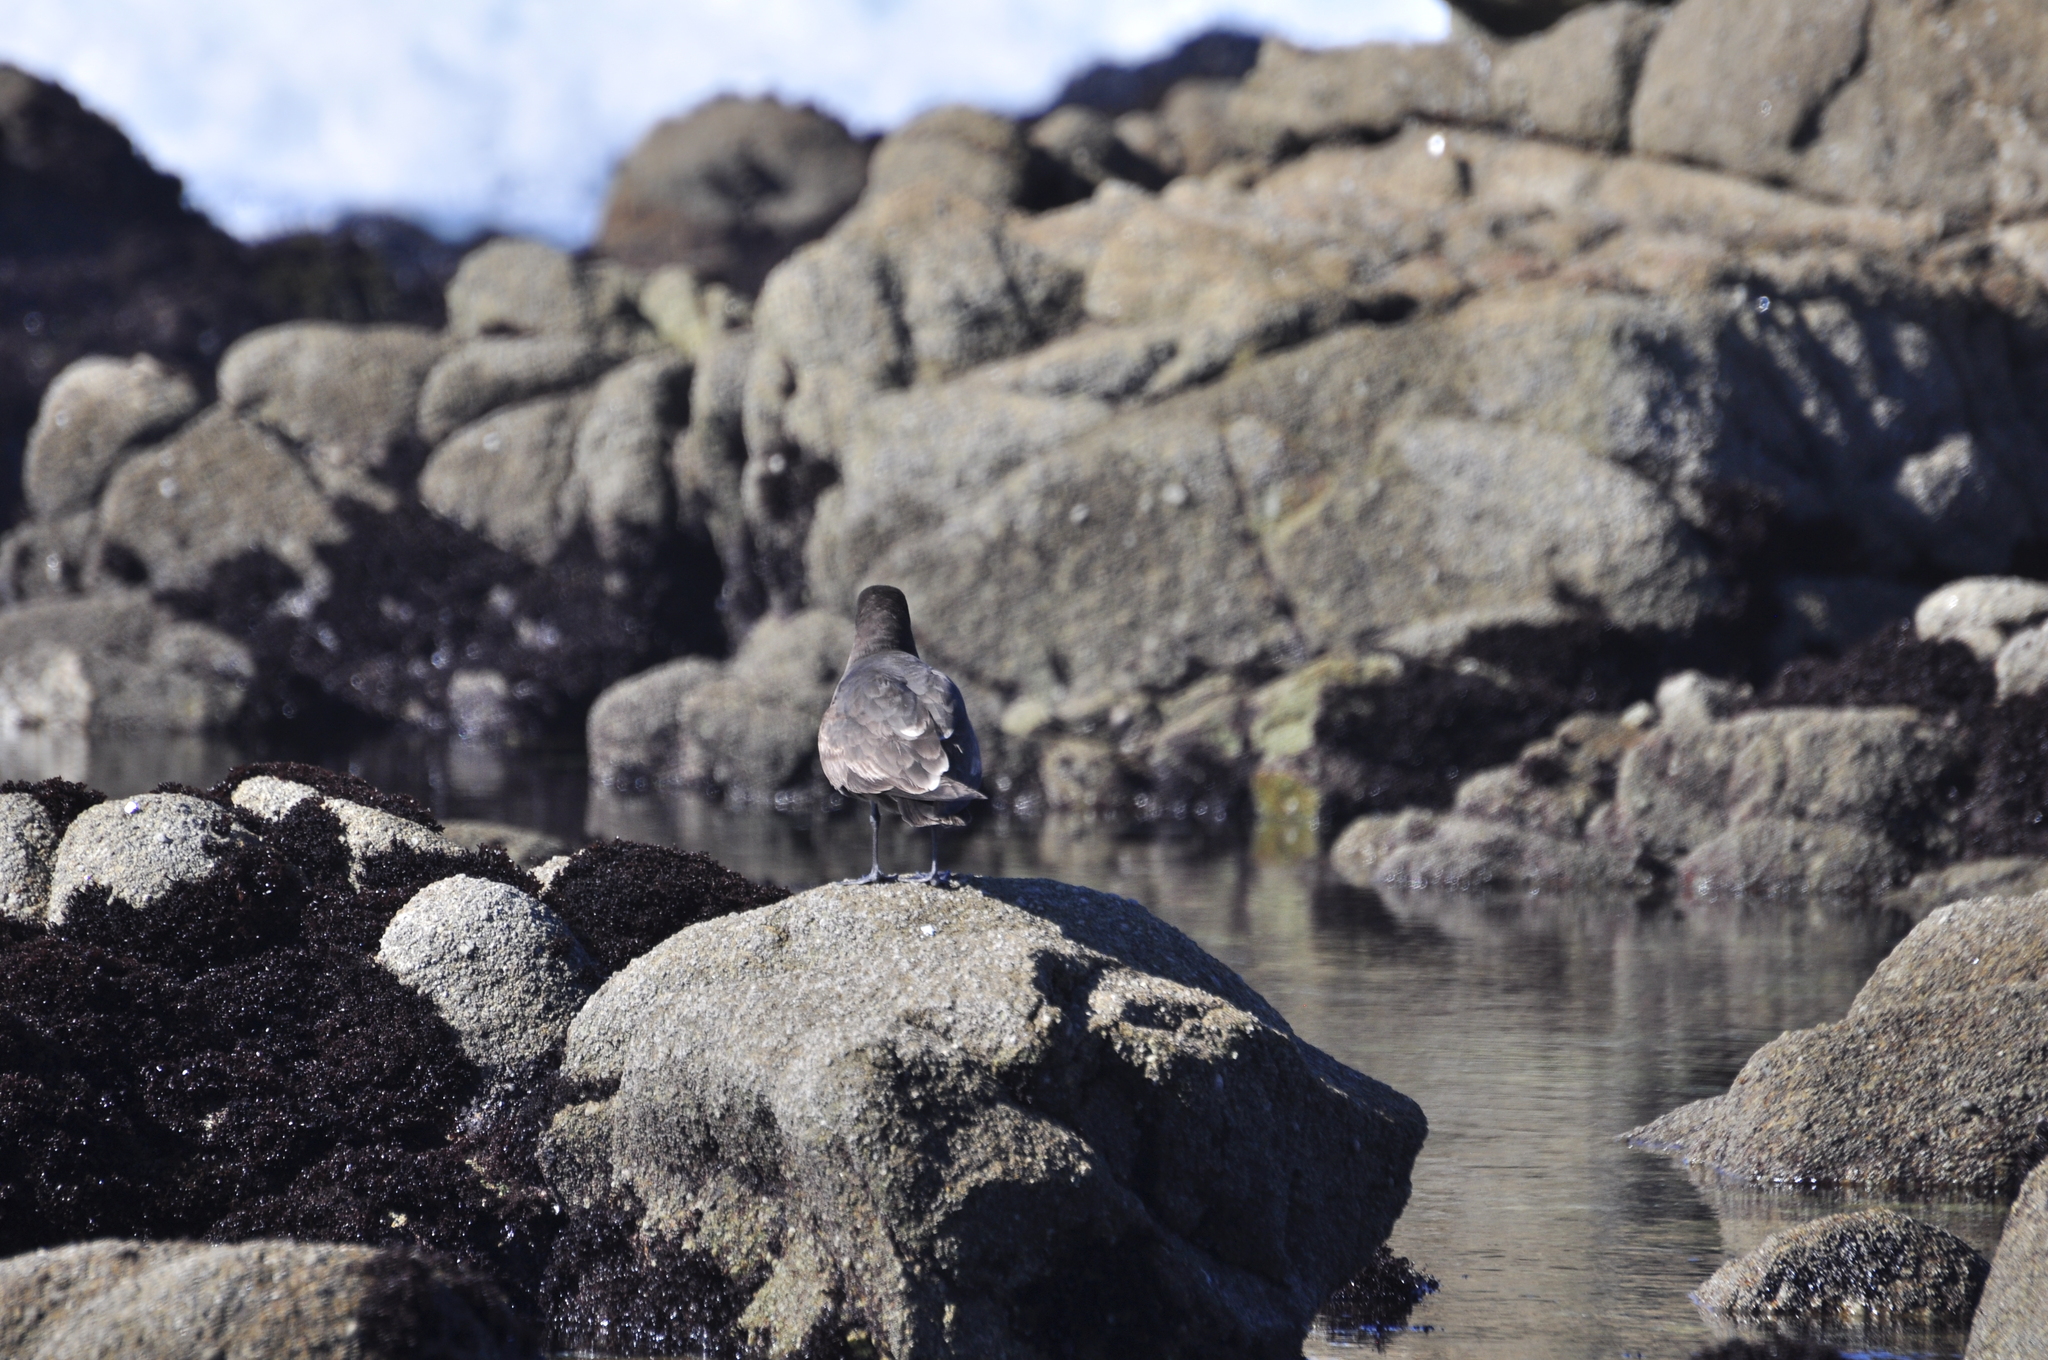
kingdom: Animalia
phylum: Chordata
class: Aves
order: Charadriiformes
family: Laridae
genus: Larus
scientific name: Larus heermanni
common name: Heermann's gull
